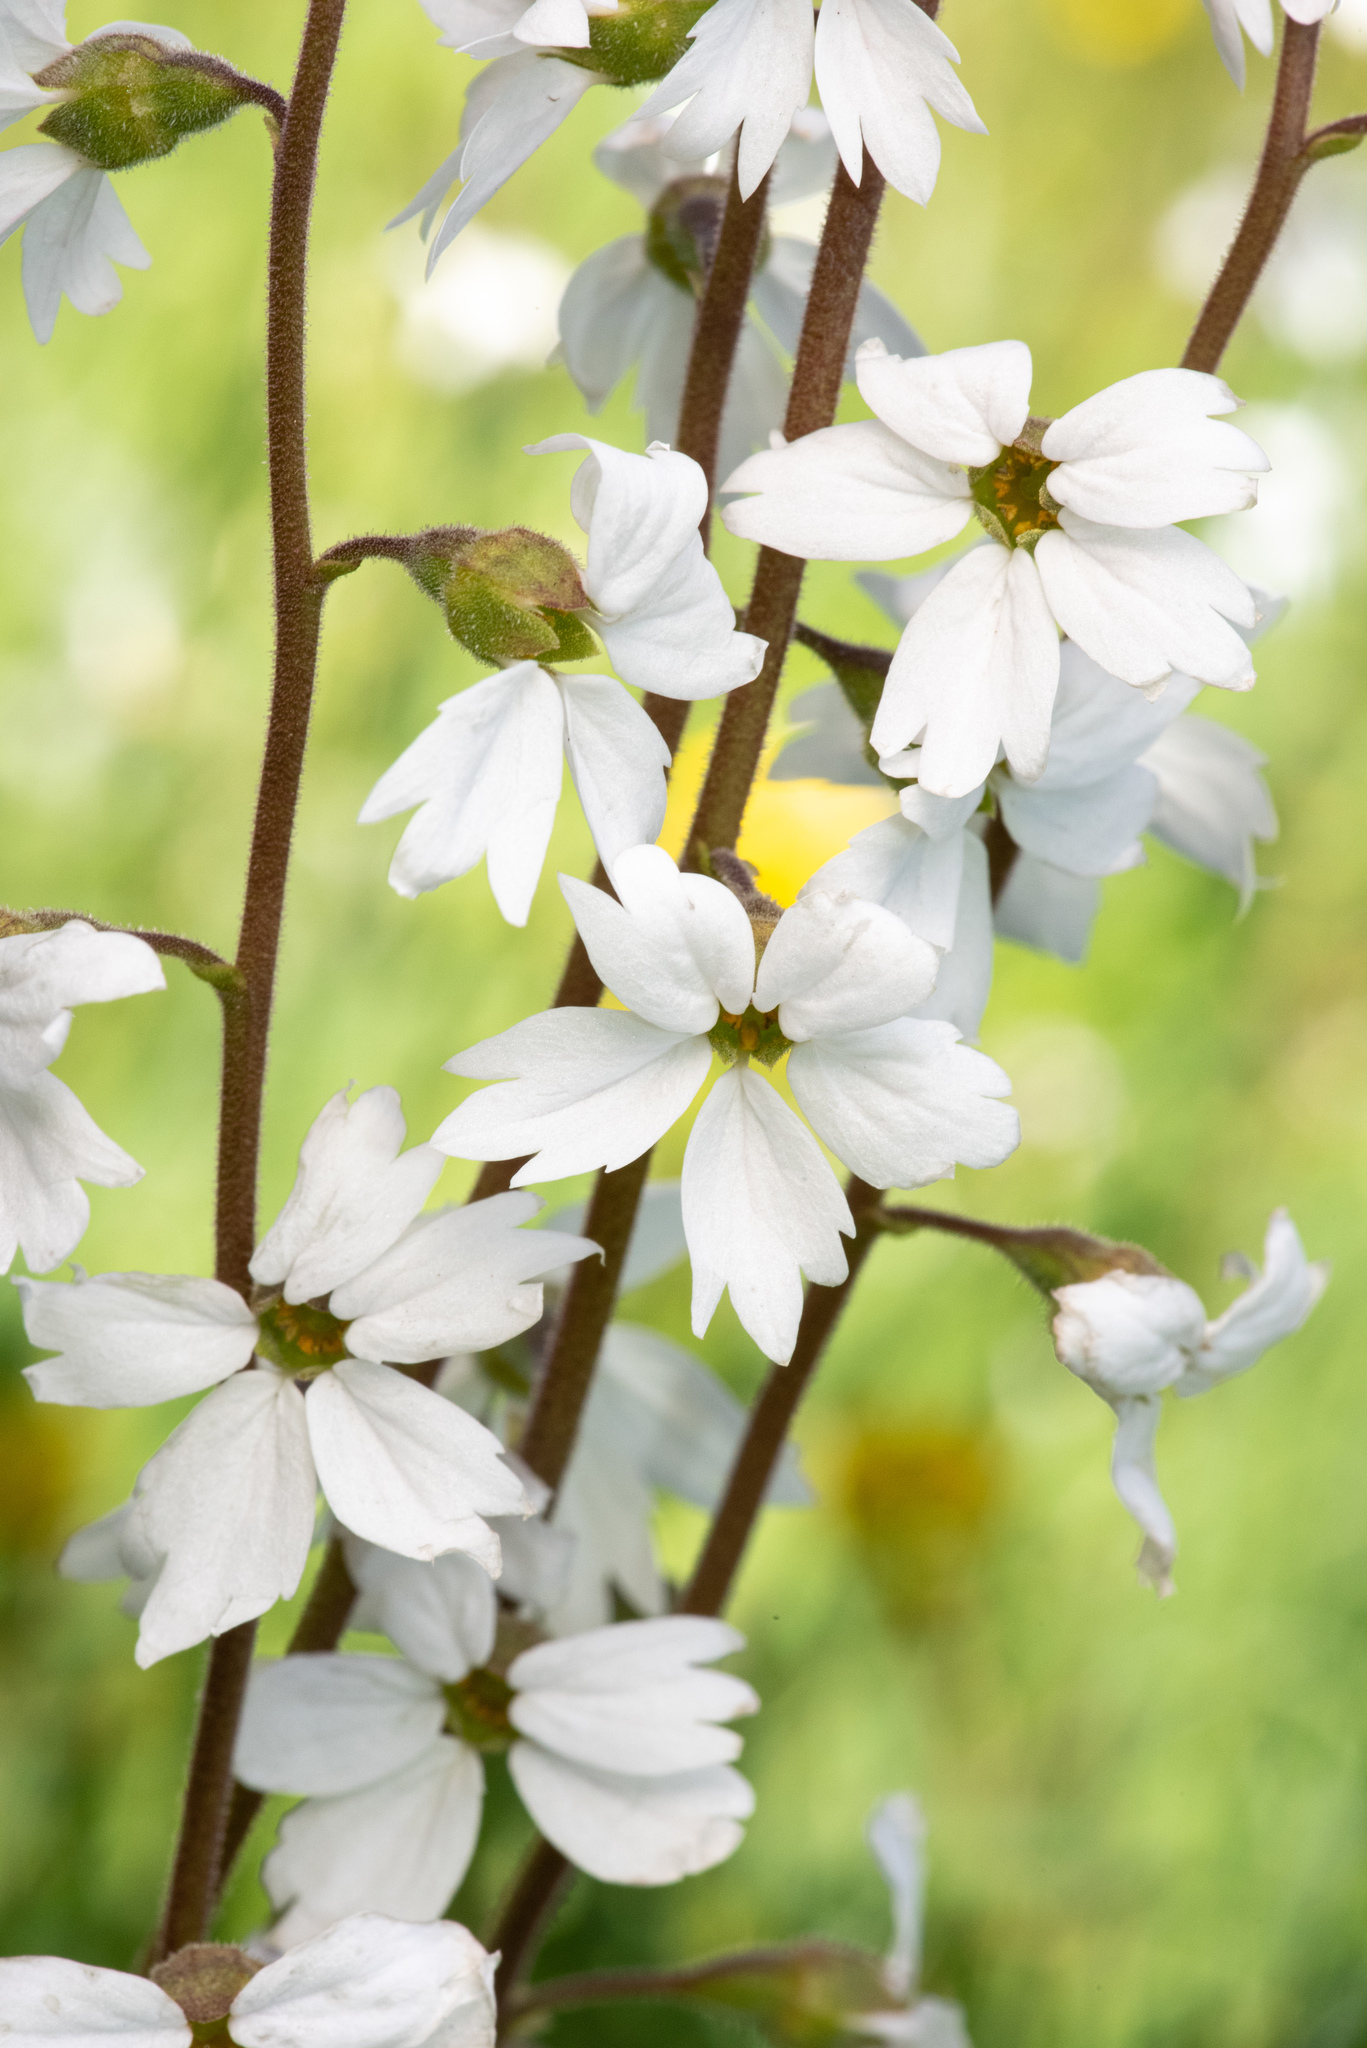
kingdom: Plantae
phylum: Tracheophyta
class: Magnoliopsida
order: Saxifragales
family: Saxifragaceae
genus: Lithophragma
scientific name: Lithophragma parviflorum
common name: Small-flowered fringe-cup
